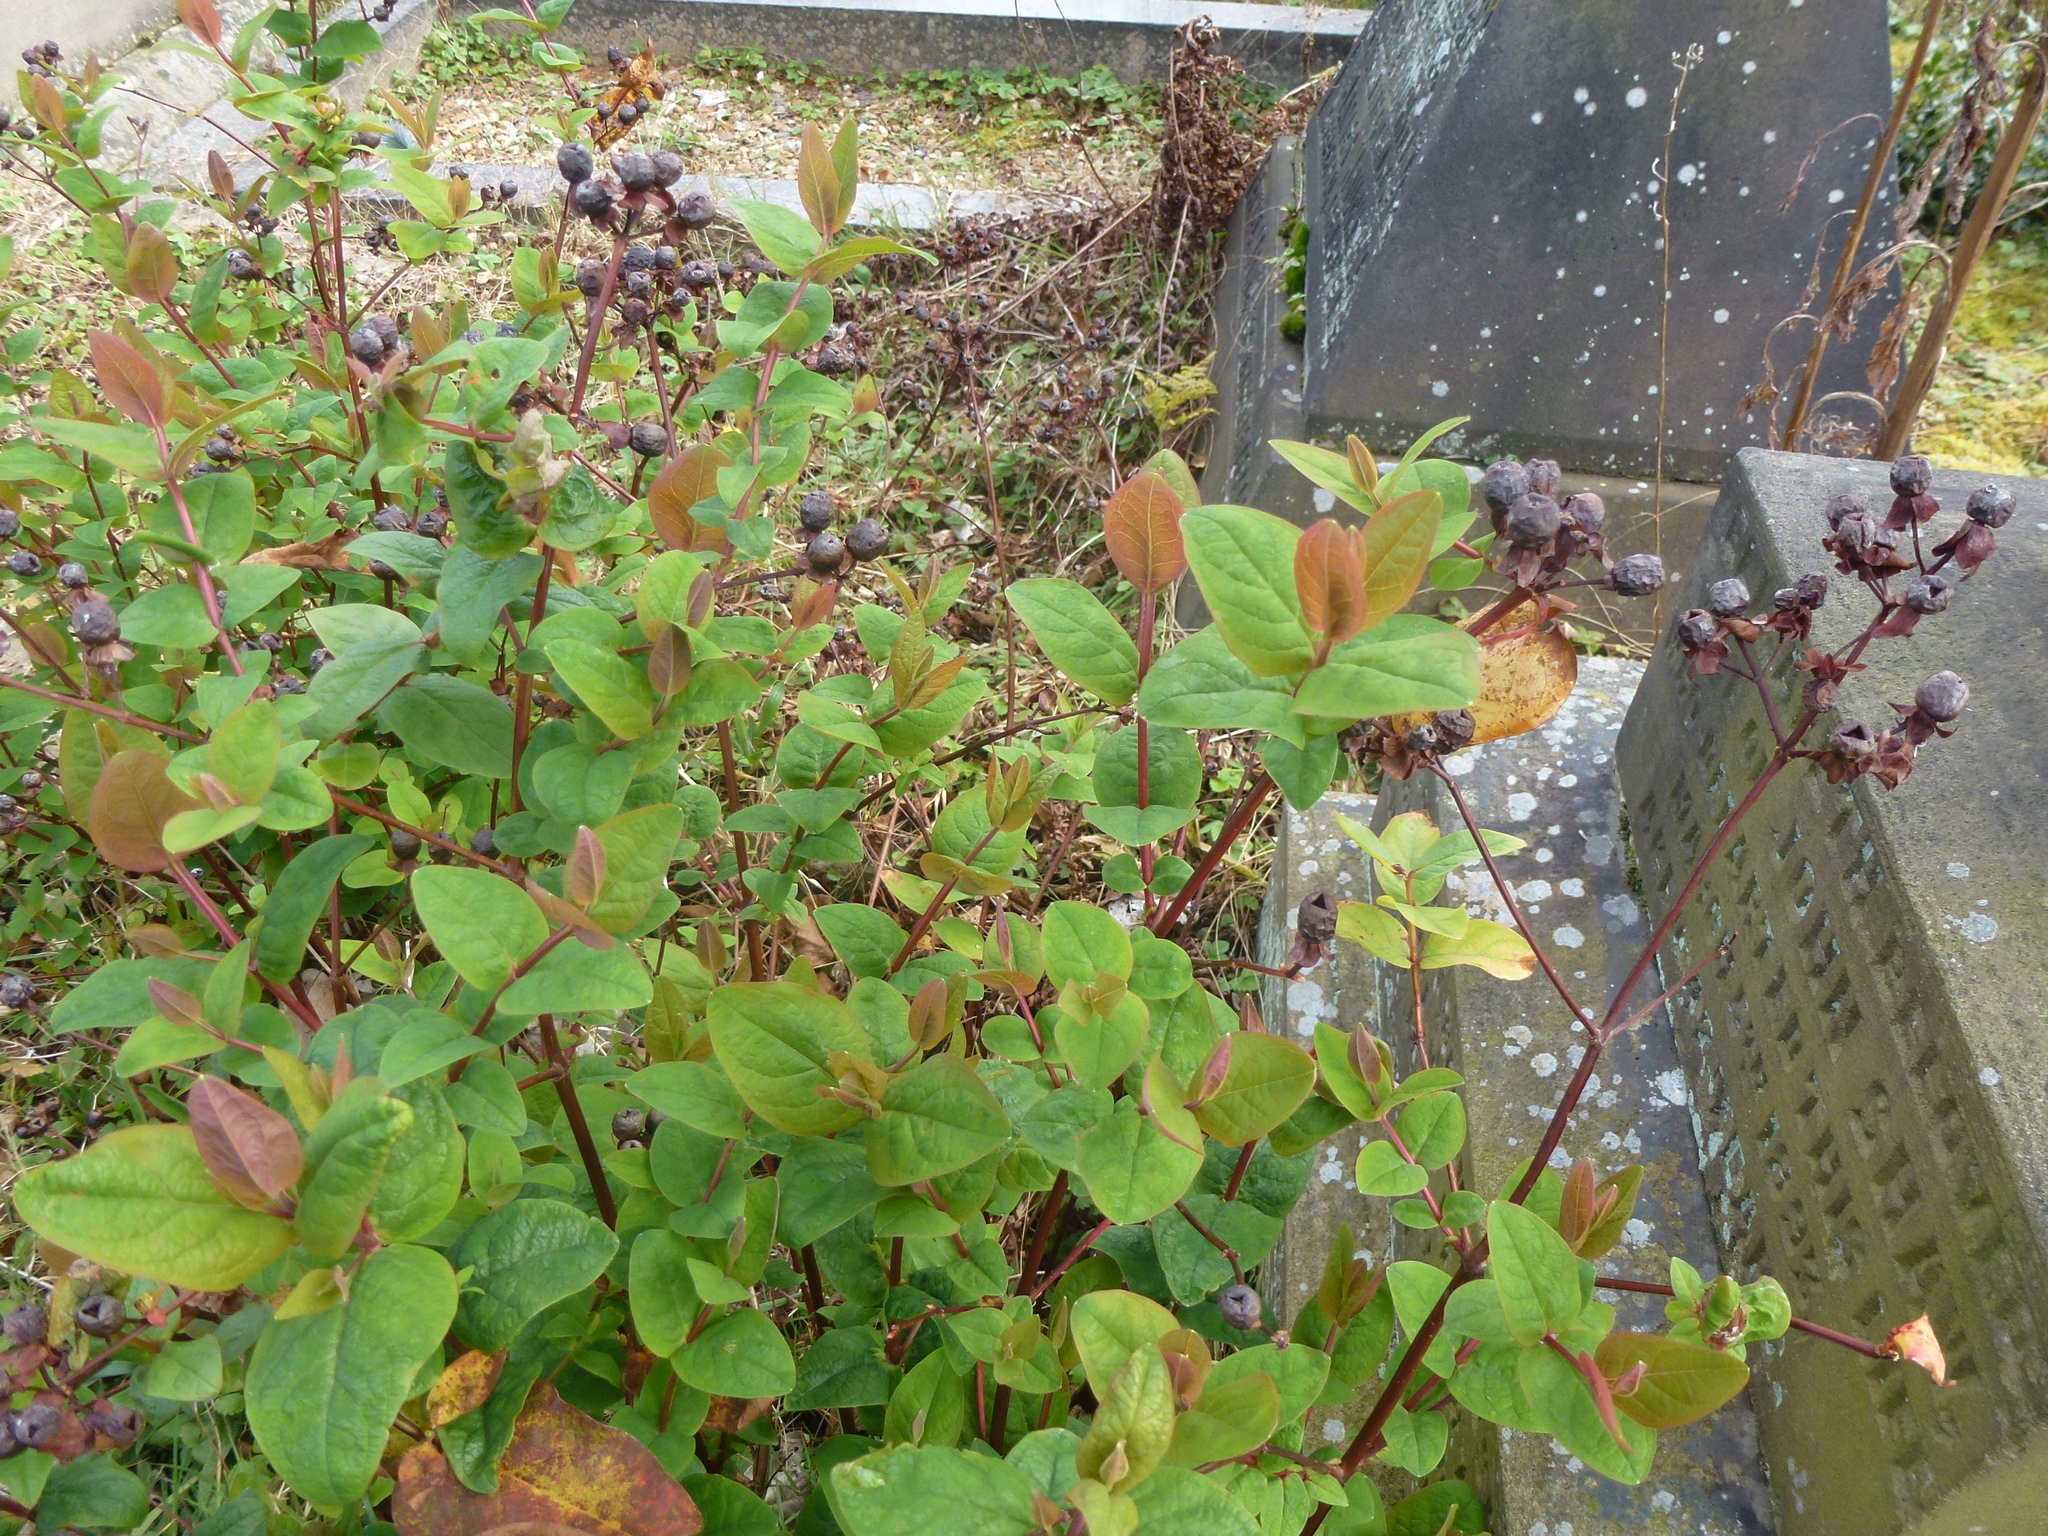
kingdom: Plantae
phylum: Tracheophyta
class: Magnoliopsida
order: Malpighiales
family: Hypericaceae
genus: Hypericum
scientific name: Hypericum androsaemum
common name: Sweet-amber
